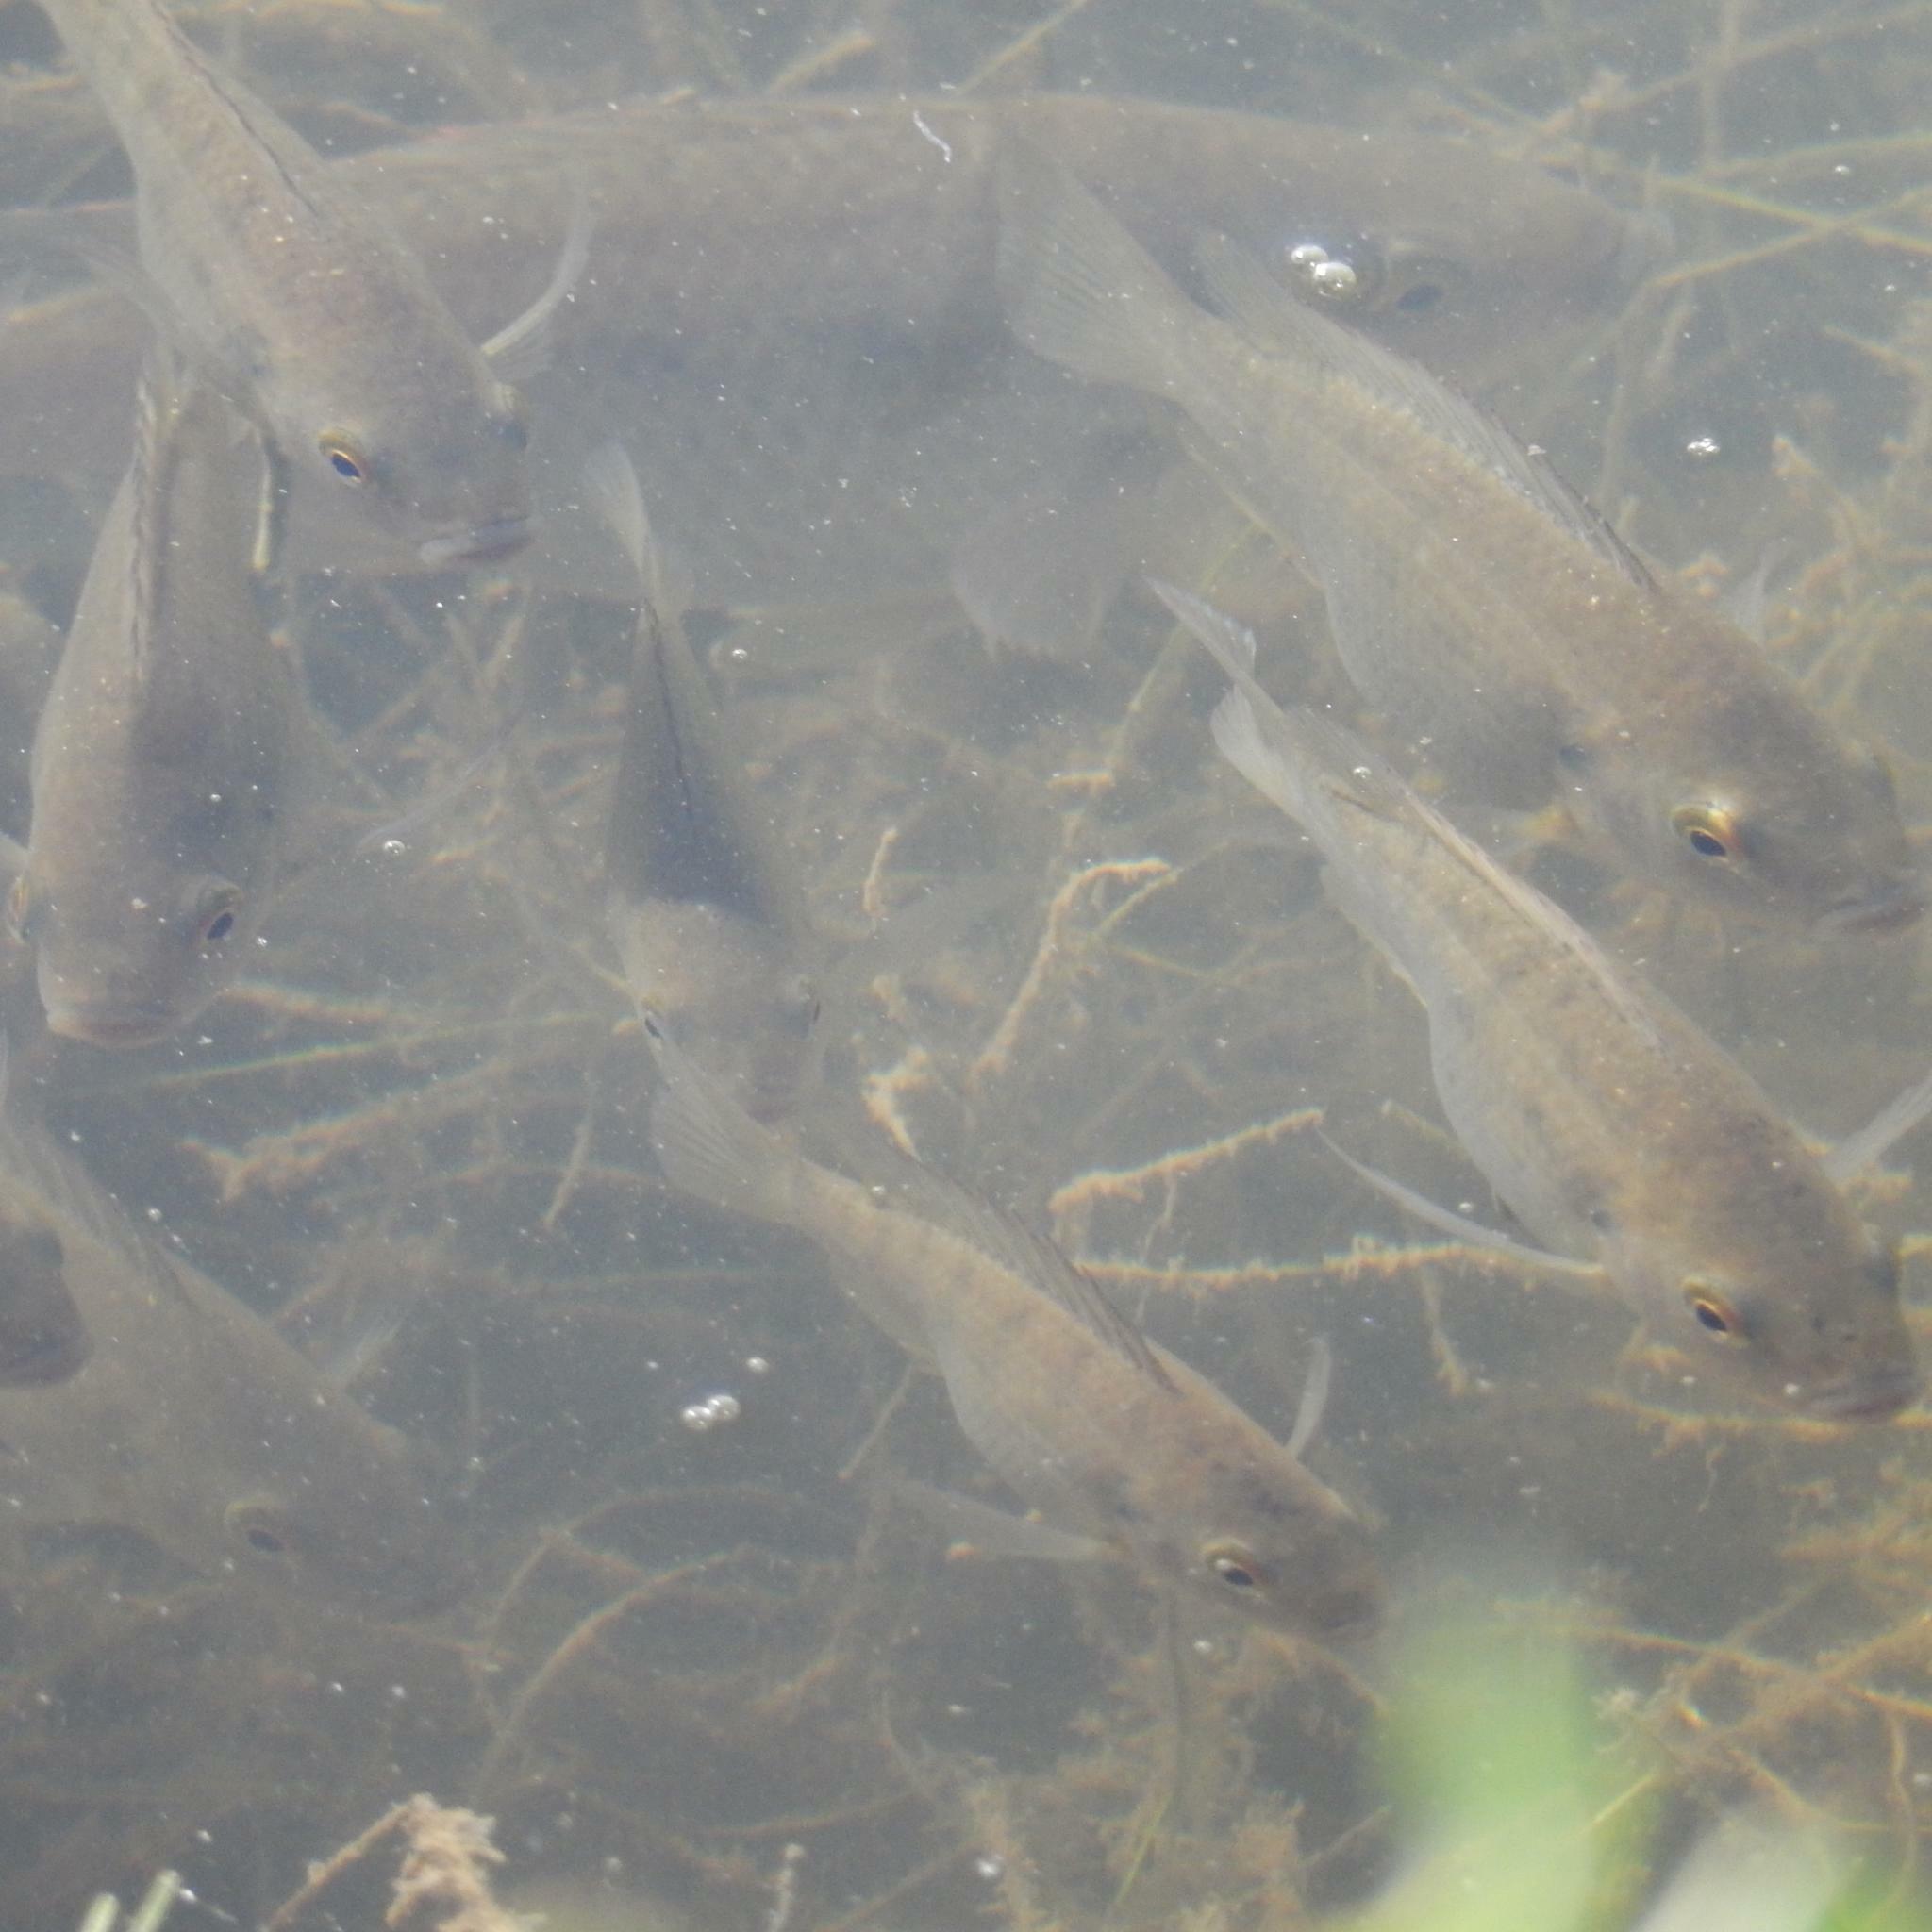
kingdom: Animalia
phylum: Chordata
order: Perciformes
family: Cichlidae
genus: Oreochromis
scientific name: Oreochromis mossambicus
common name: Mozambique tilapia
